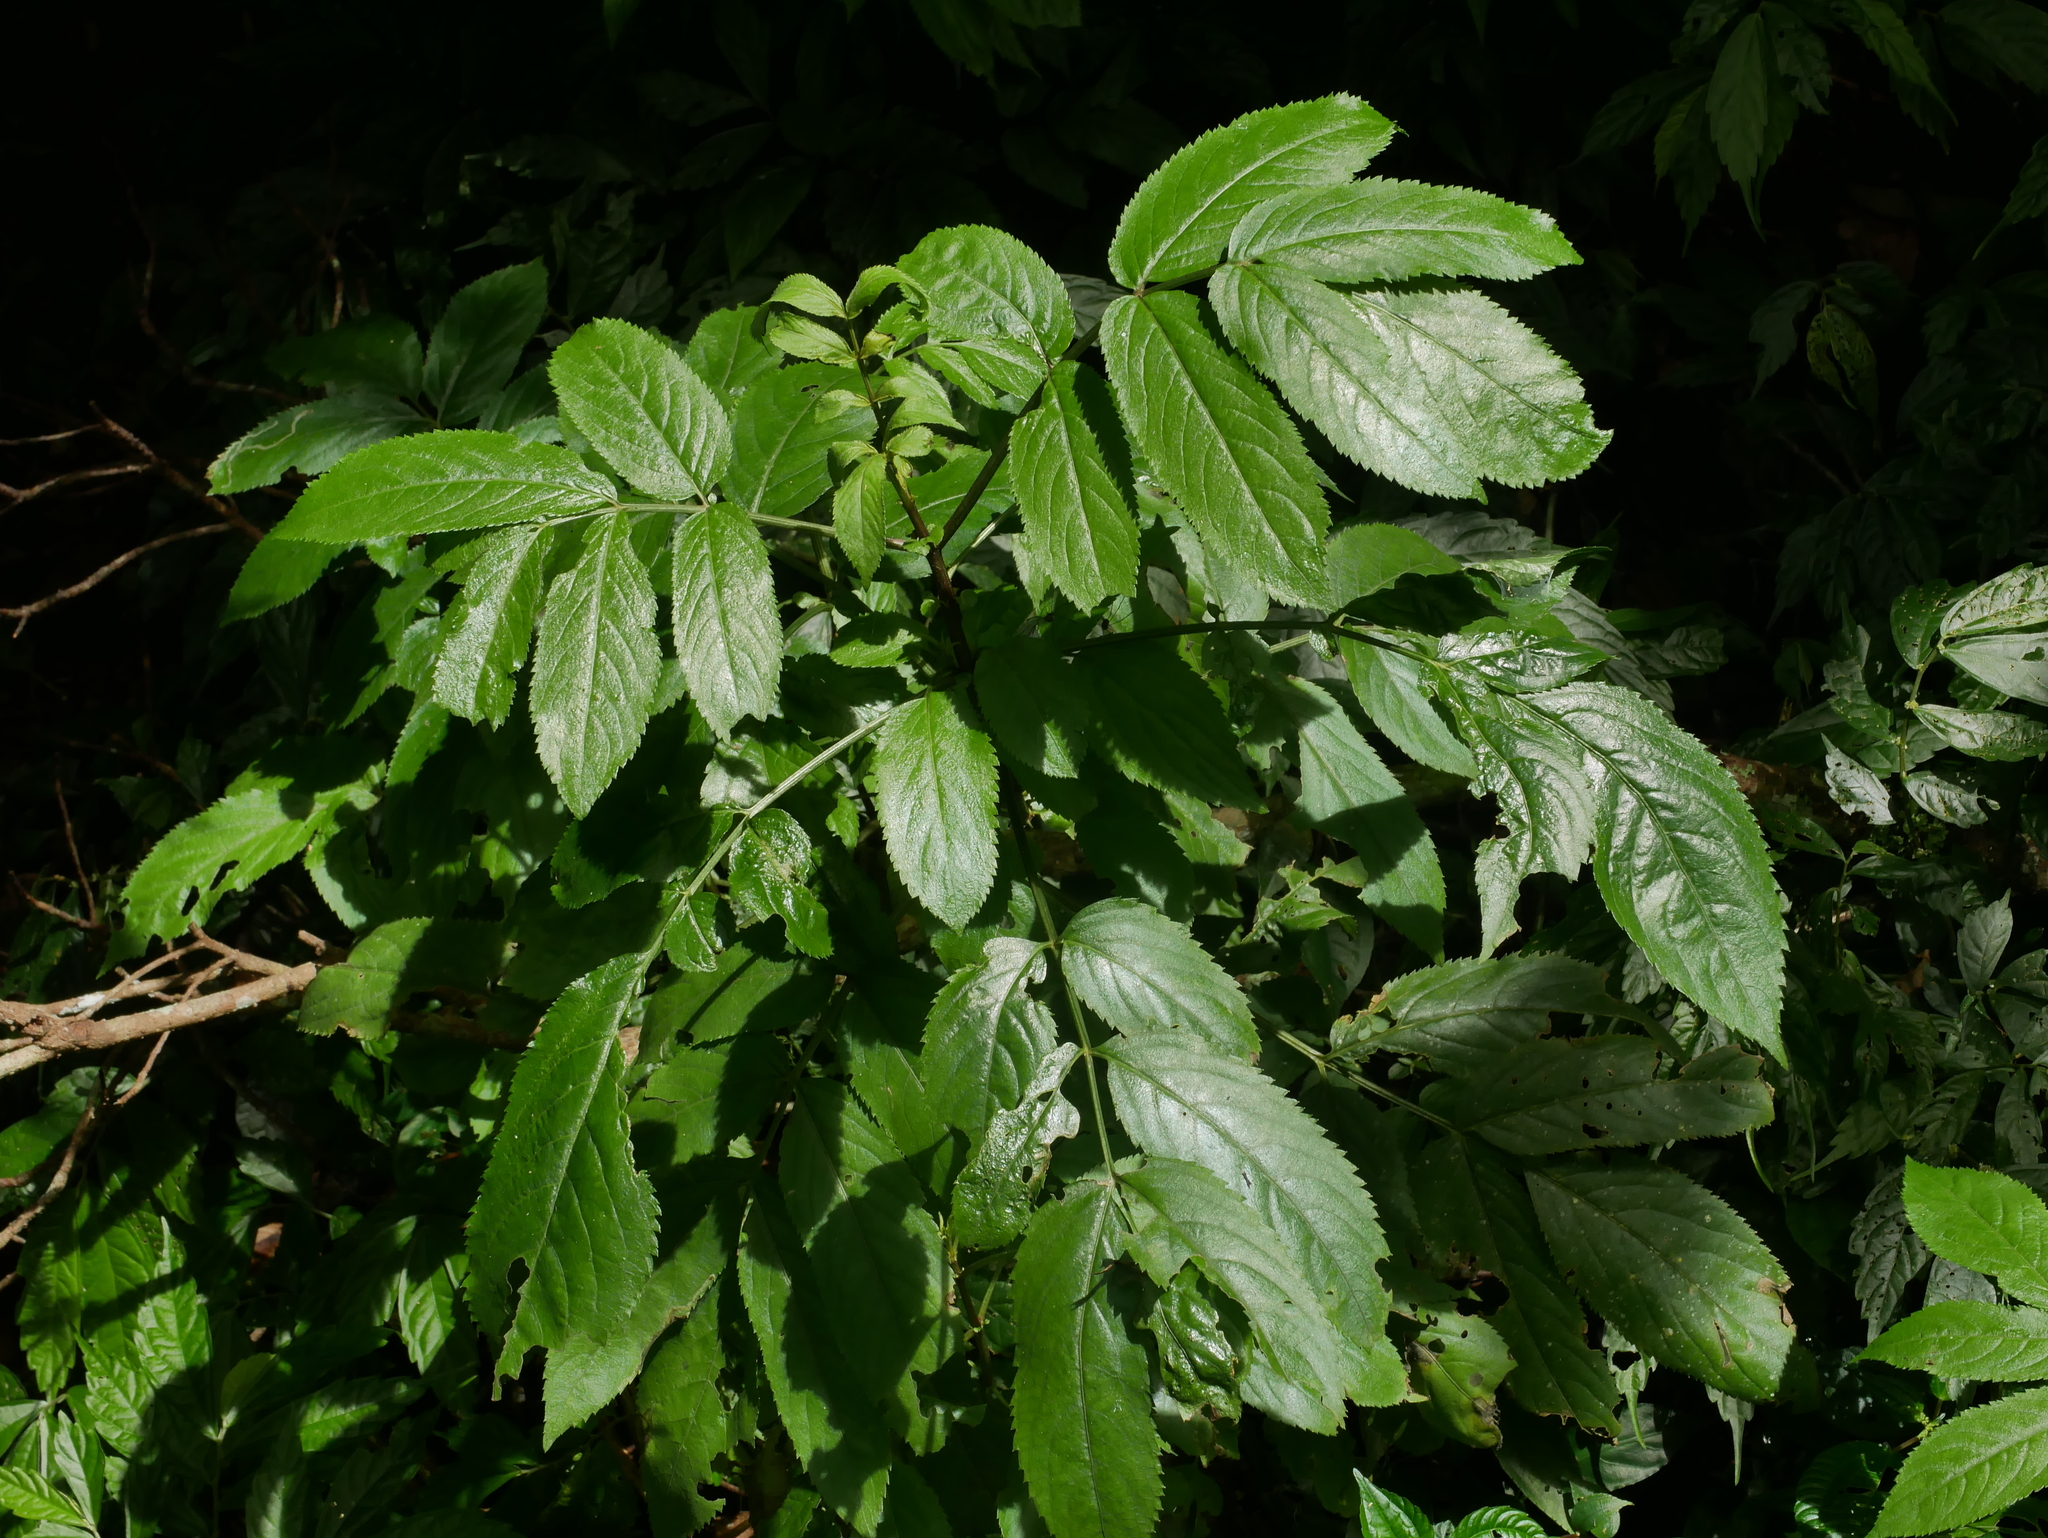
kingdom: Plantae
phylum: Tracheophyta
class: Magnoliopsida
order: Dipsacales
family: Viburnaceae
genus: Sambucus
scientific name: Sambucus javanica
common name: Chinese elder
